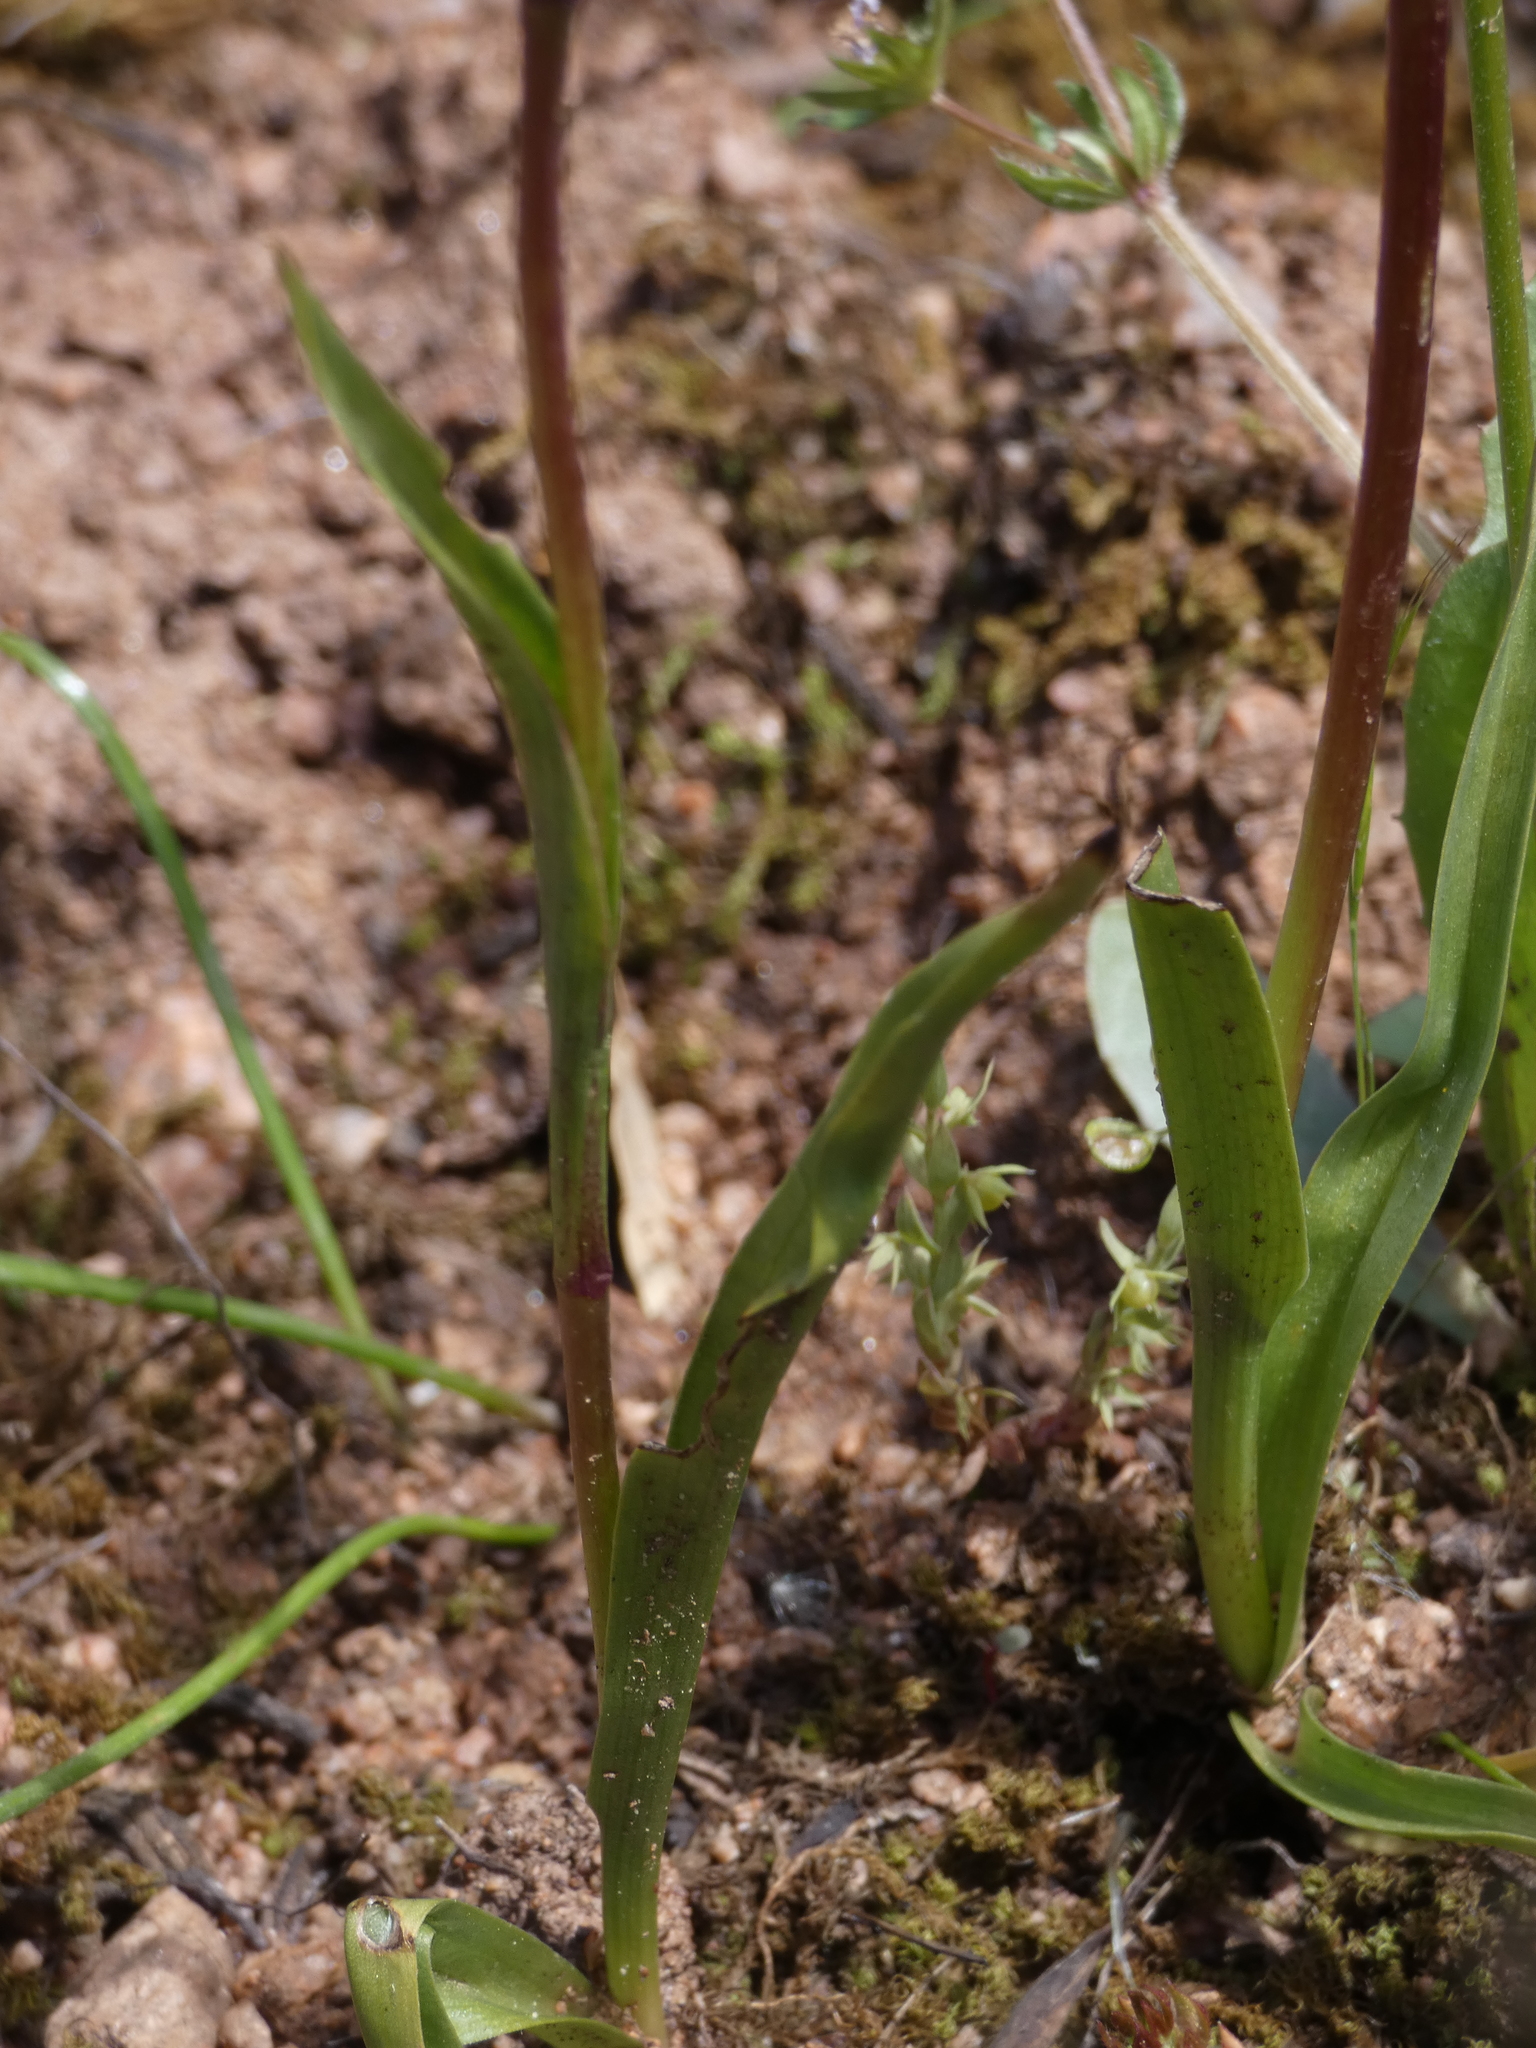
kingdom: Plantae
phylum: Tracheophyta
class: Liliopsida
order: Asparagales
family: Orchidaceae
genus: Serapias
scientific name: Serapias strictiflora
